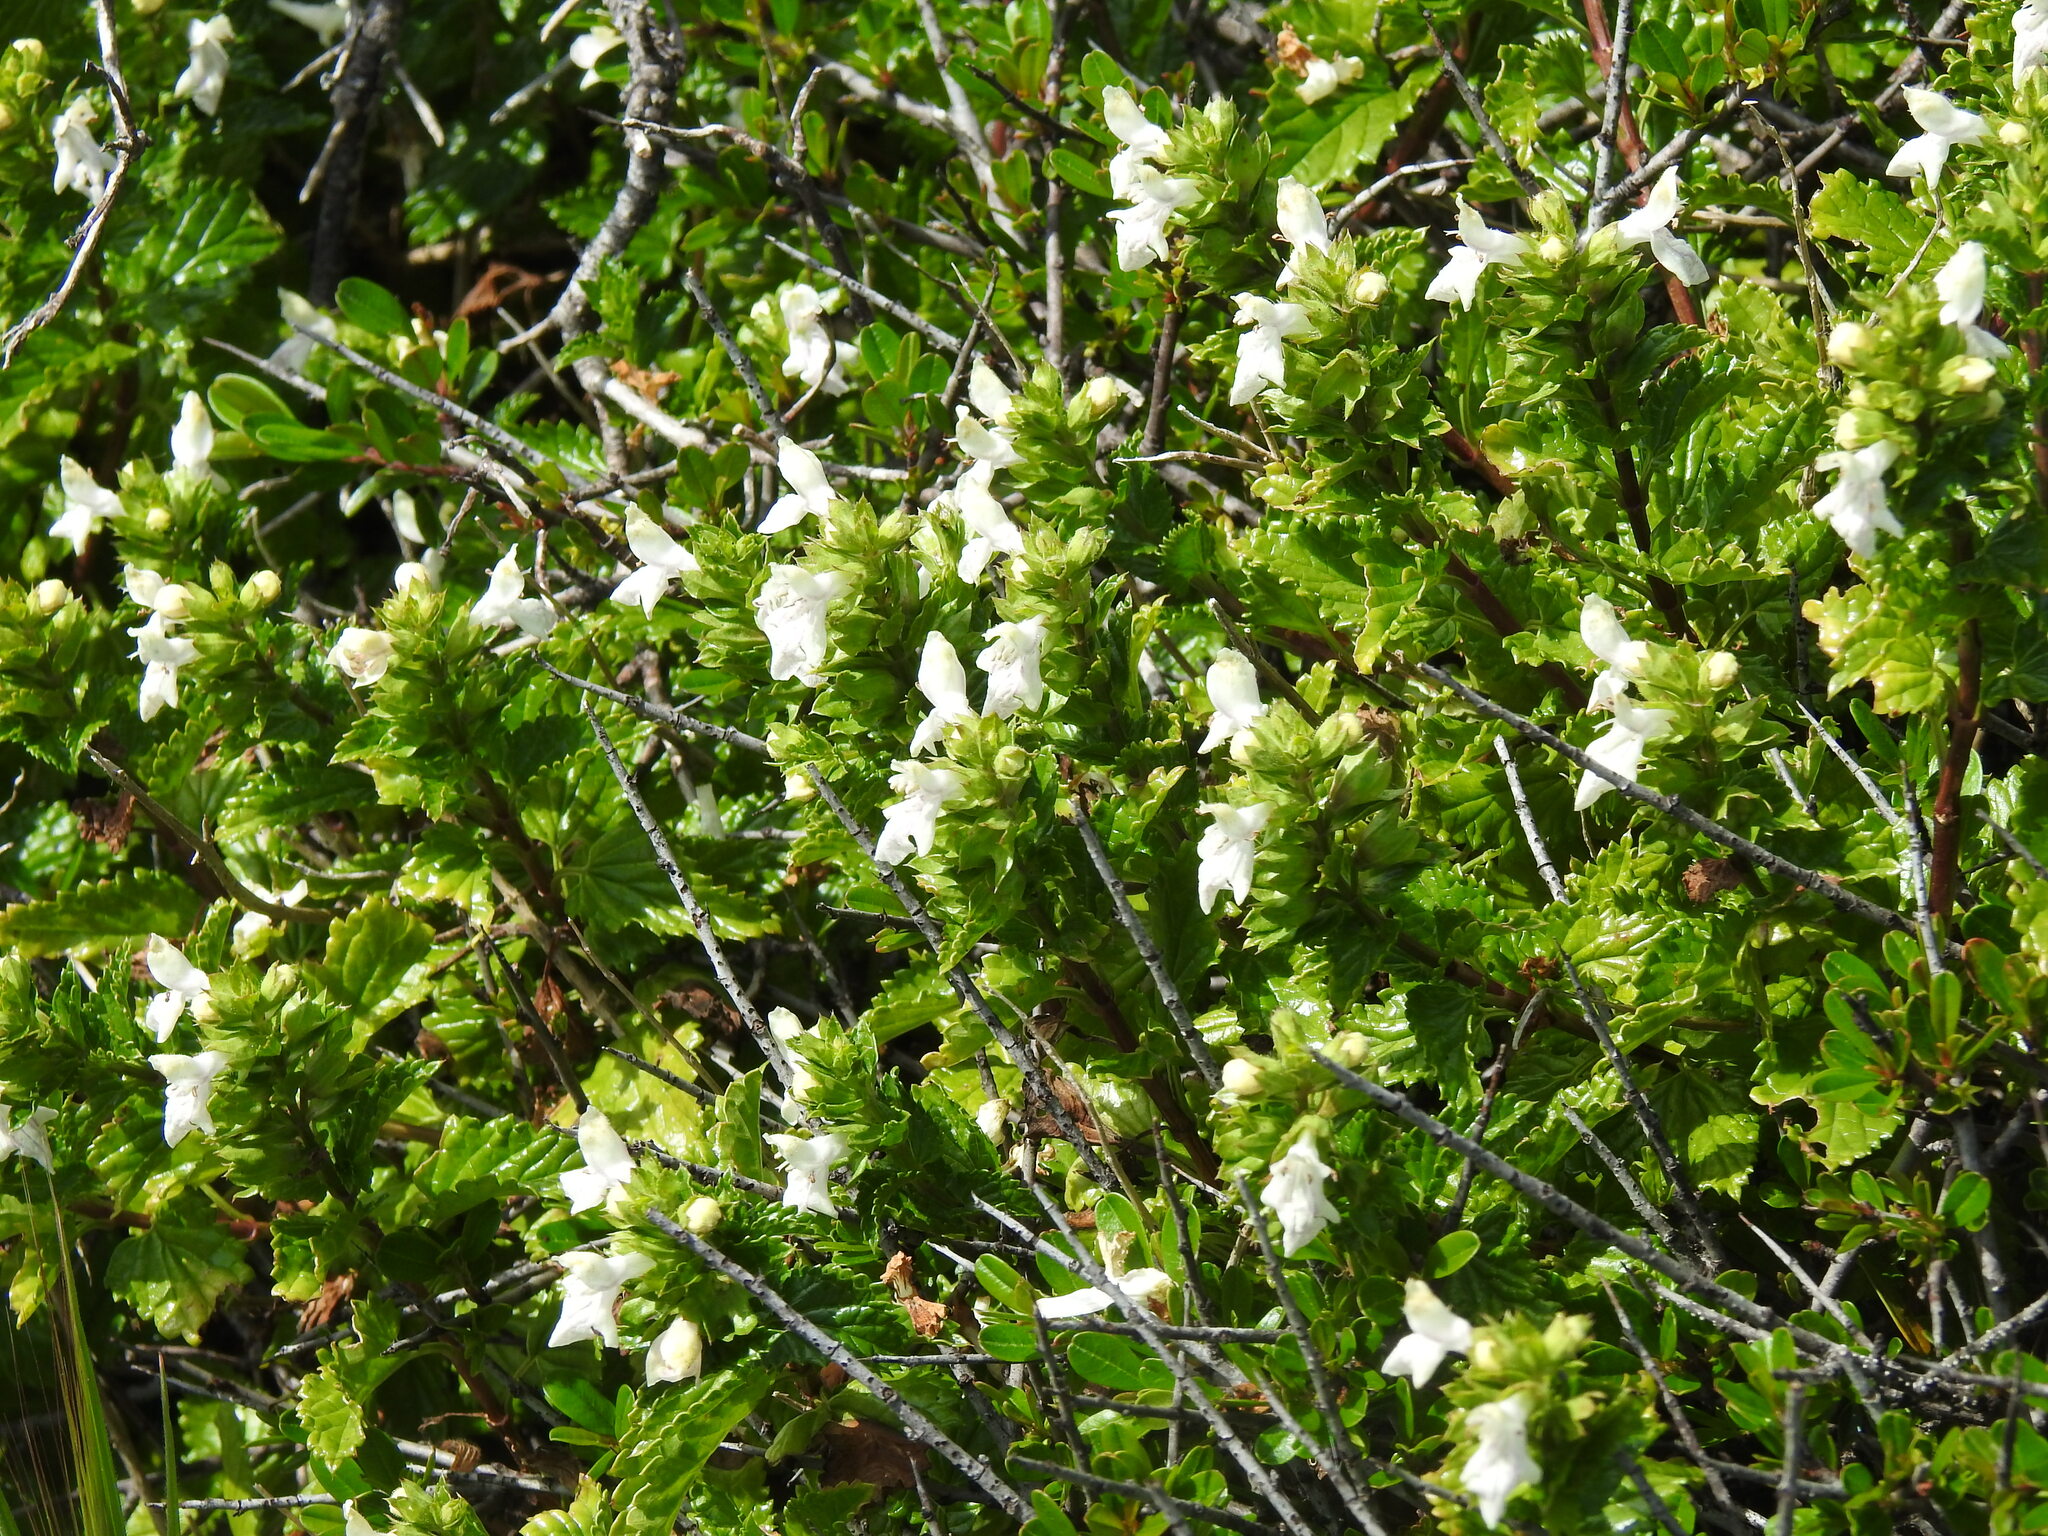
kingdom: Plantae
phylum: Tracheophyta
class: Magnoliopsida
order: Lamiales
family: Lamiaceae
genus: Prasium
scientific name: Prasium majus
